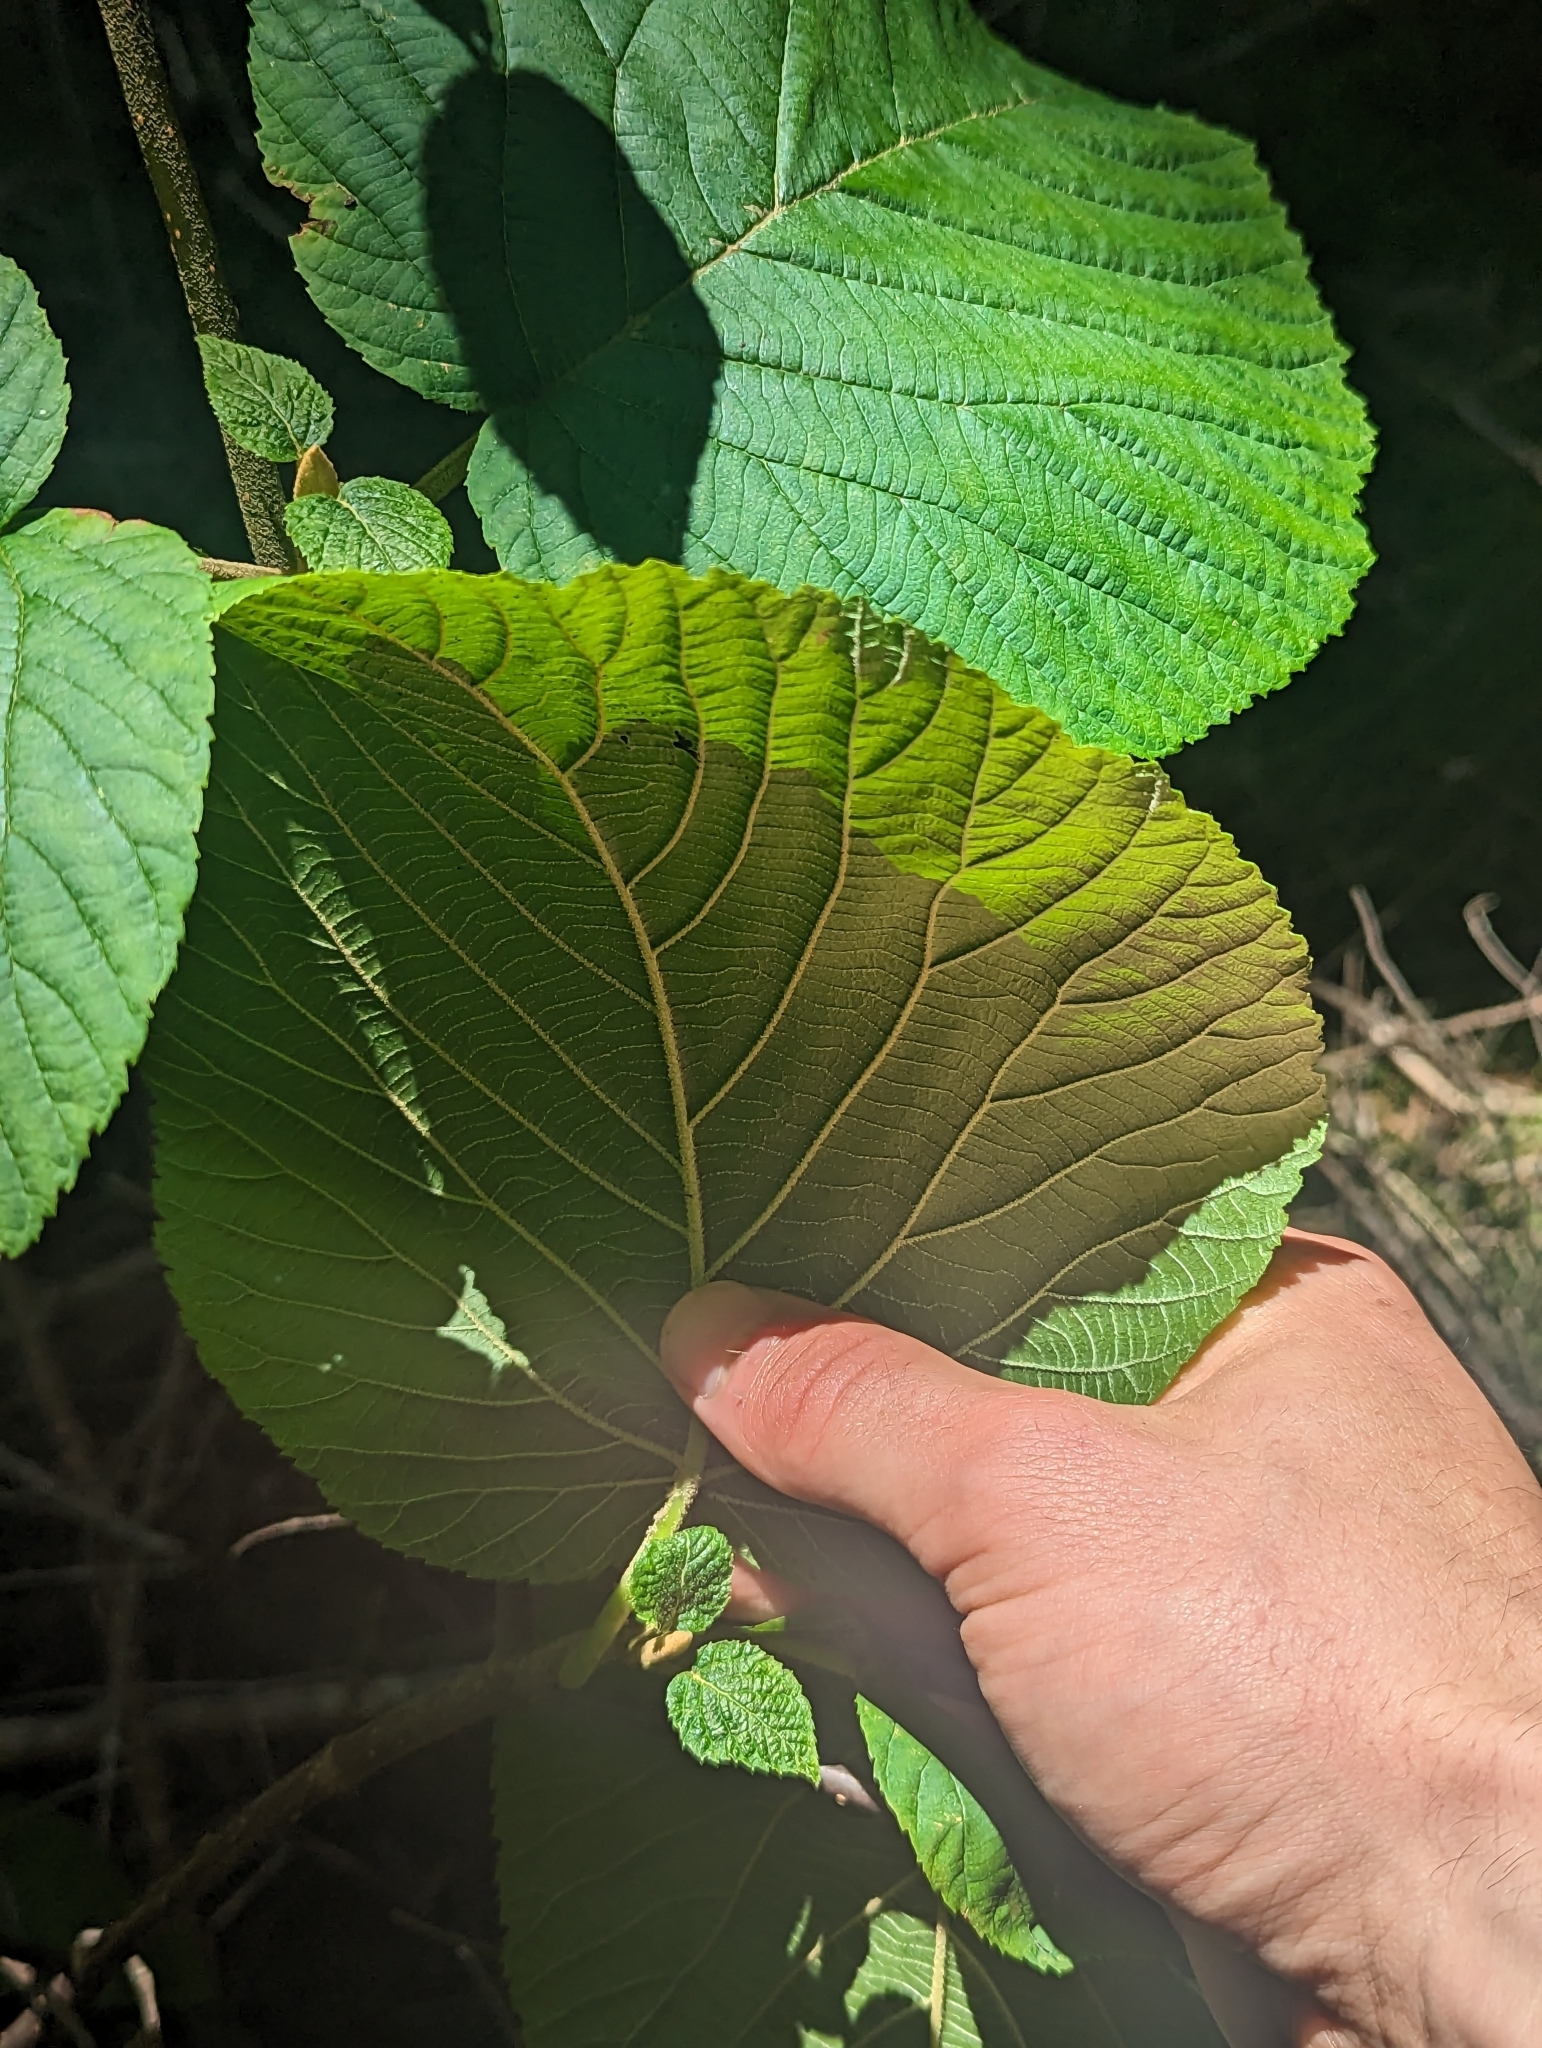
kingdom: Plantae
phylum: Tracheophyta
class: Magnoliopsida
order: Dipsacales
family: Viburnaceae
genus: Viburnum
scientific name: Viburnum lantanoides
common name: Hobblebush
